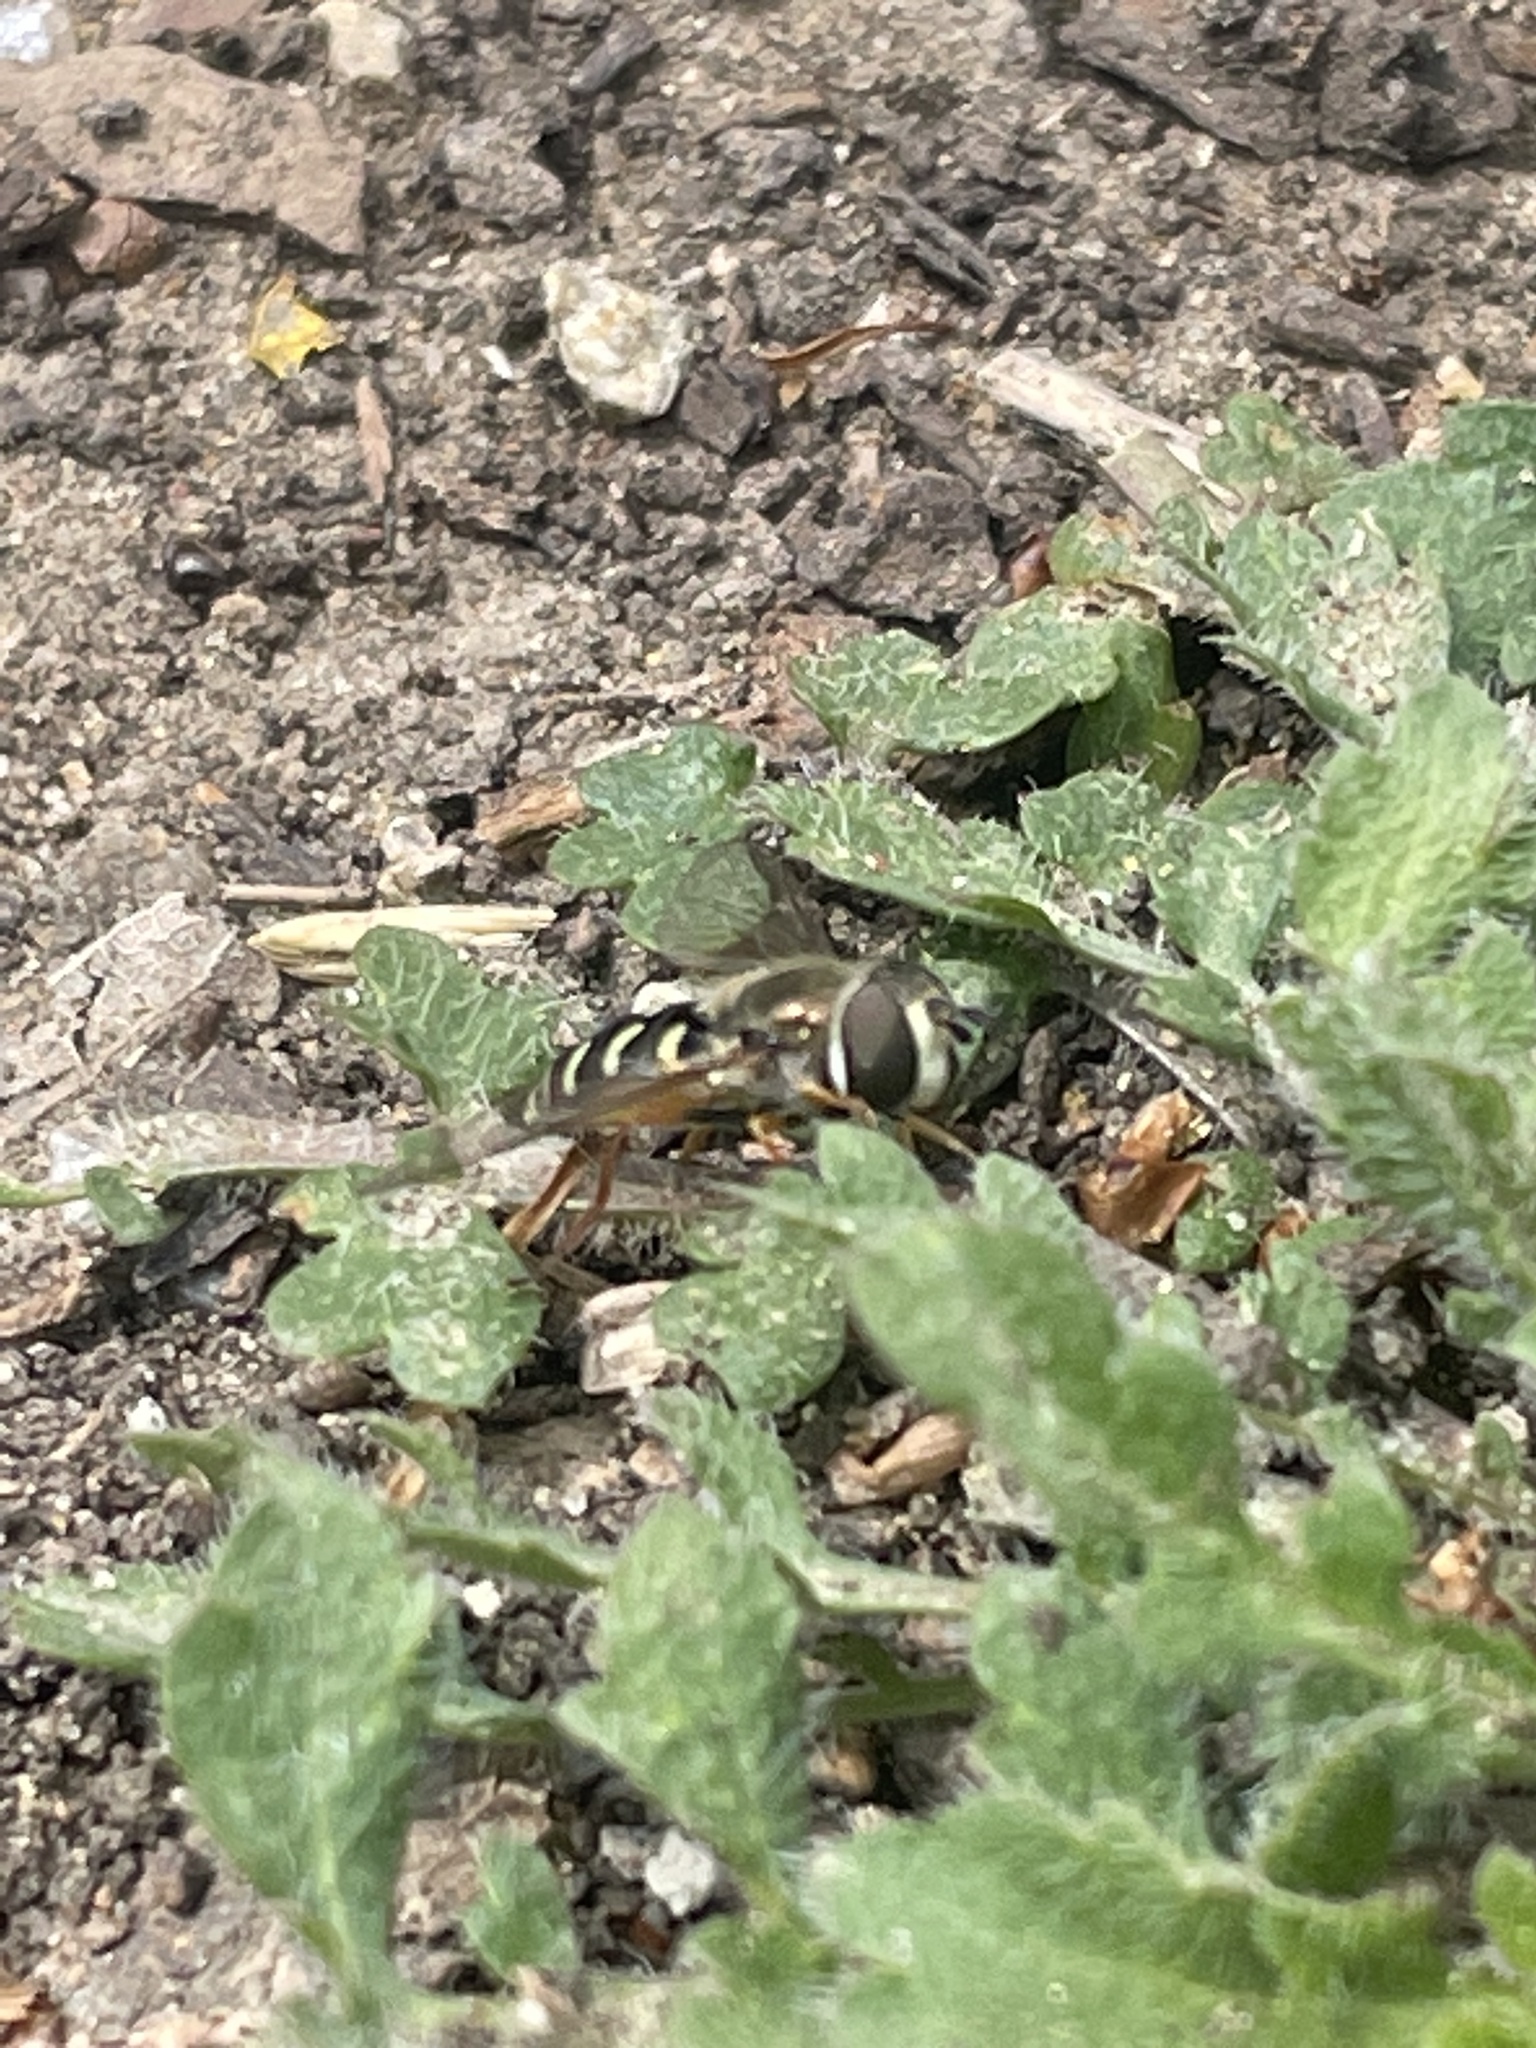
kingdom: Animalia
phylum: Arthropoda
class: Insecta
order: Diptera
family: Syrphidae
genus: Eupeodes
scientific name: Eupeodes volucris
